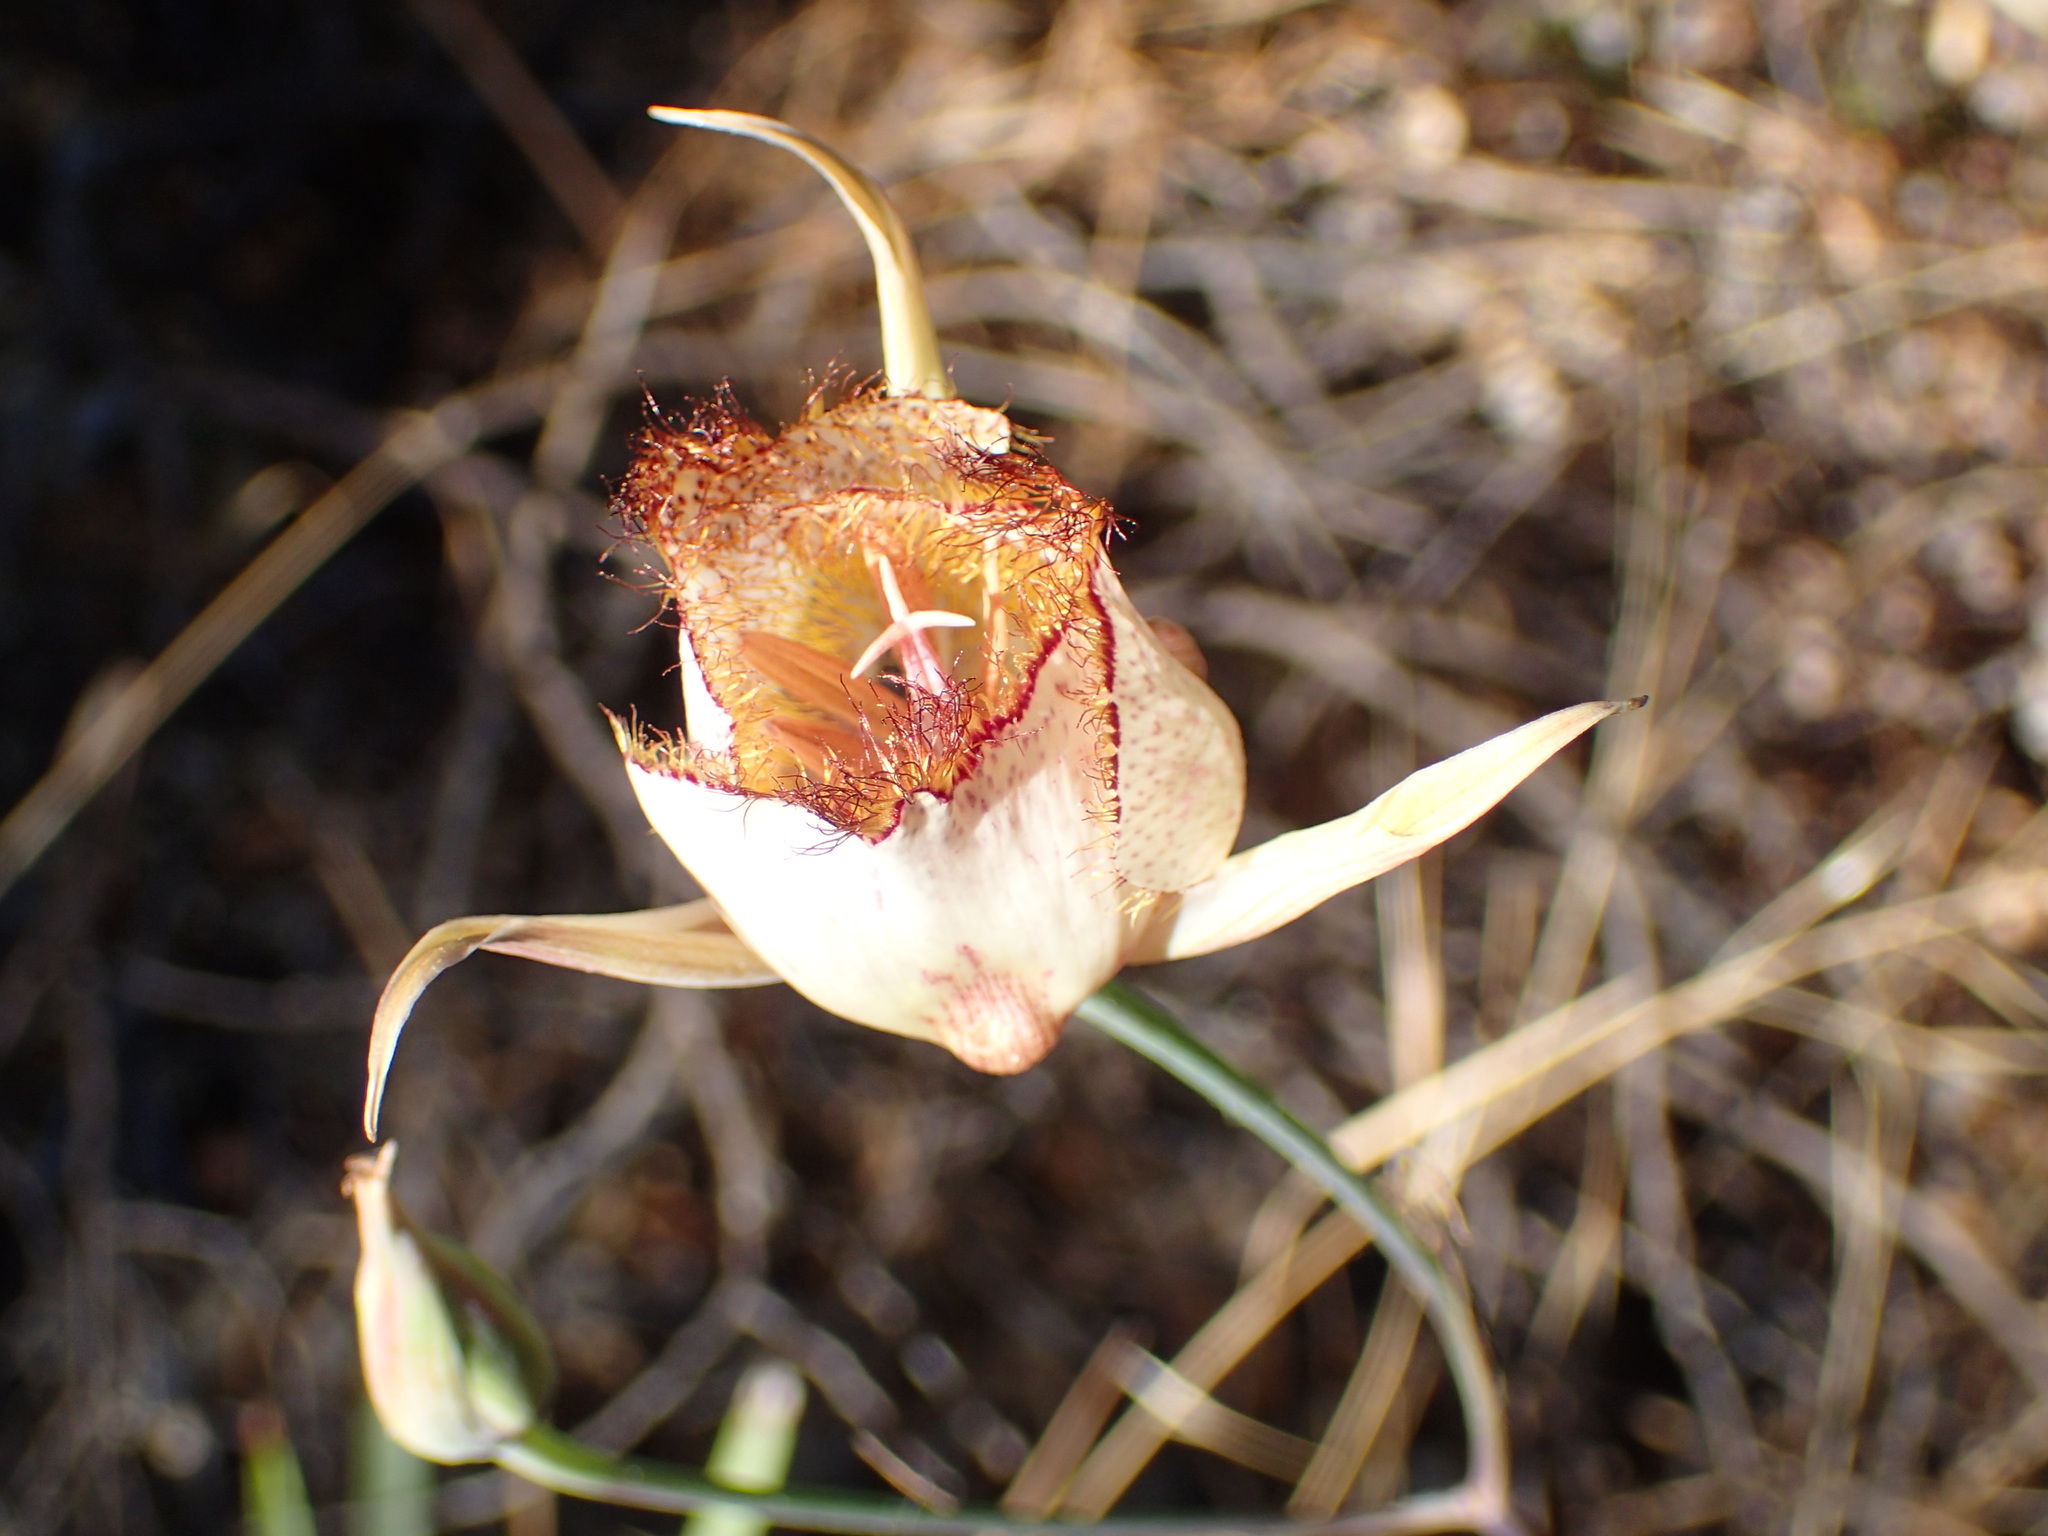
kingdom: Plantae
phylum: Tracheophyta
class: Liliopsida
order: Liliales
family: Liliaceae
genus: Calochortus
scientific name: Calochortus fimbriatus
